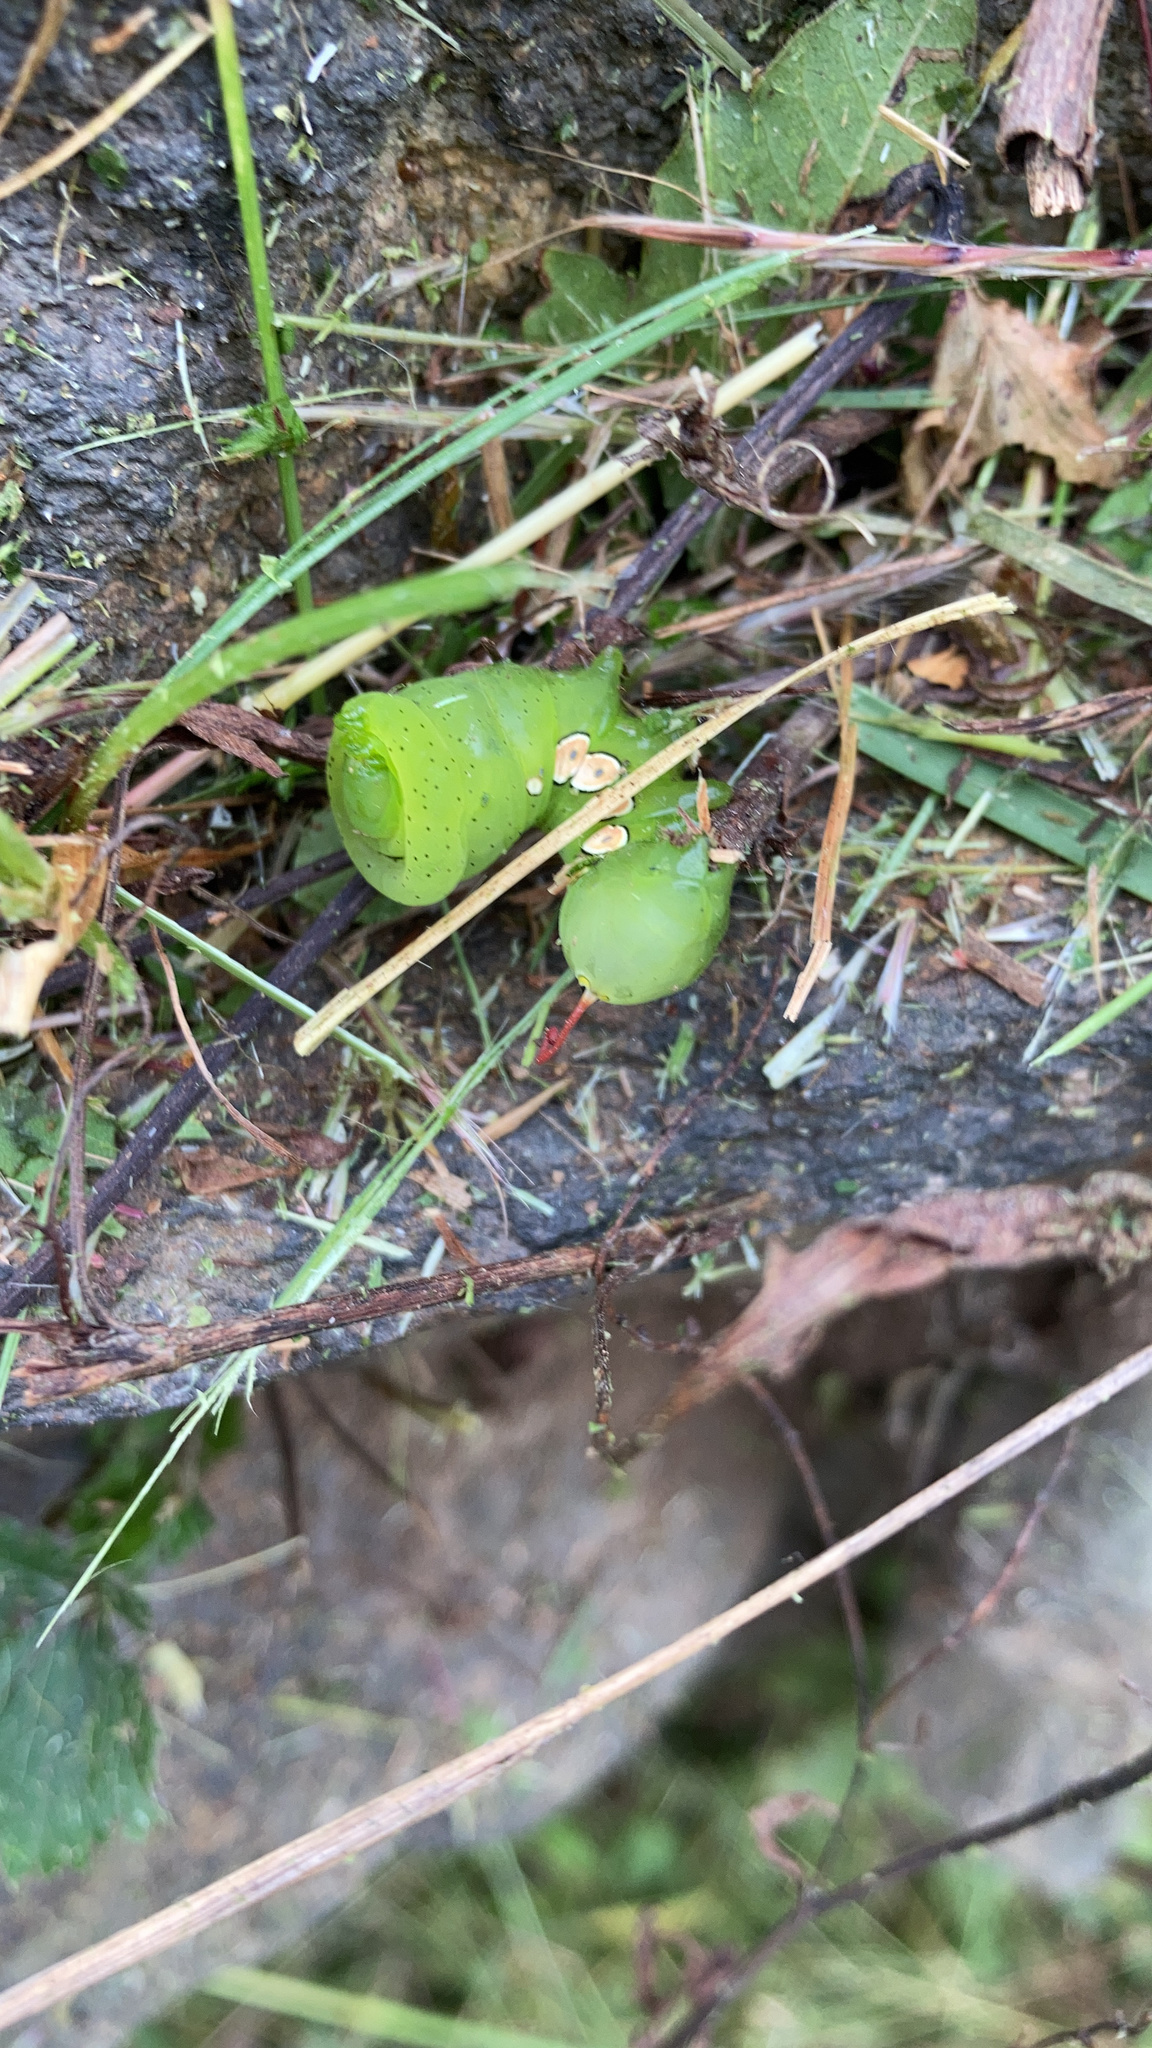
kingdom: Animalia
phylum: Arthropoda
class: Insecta
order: Lepidoptera
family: Sphingidae
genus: Eumorpha
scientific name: Eumorpha pandorus
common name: Pandora sphinx
